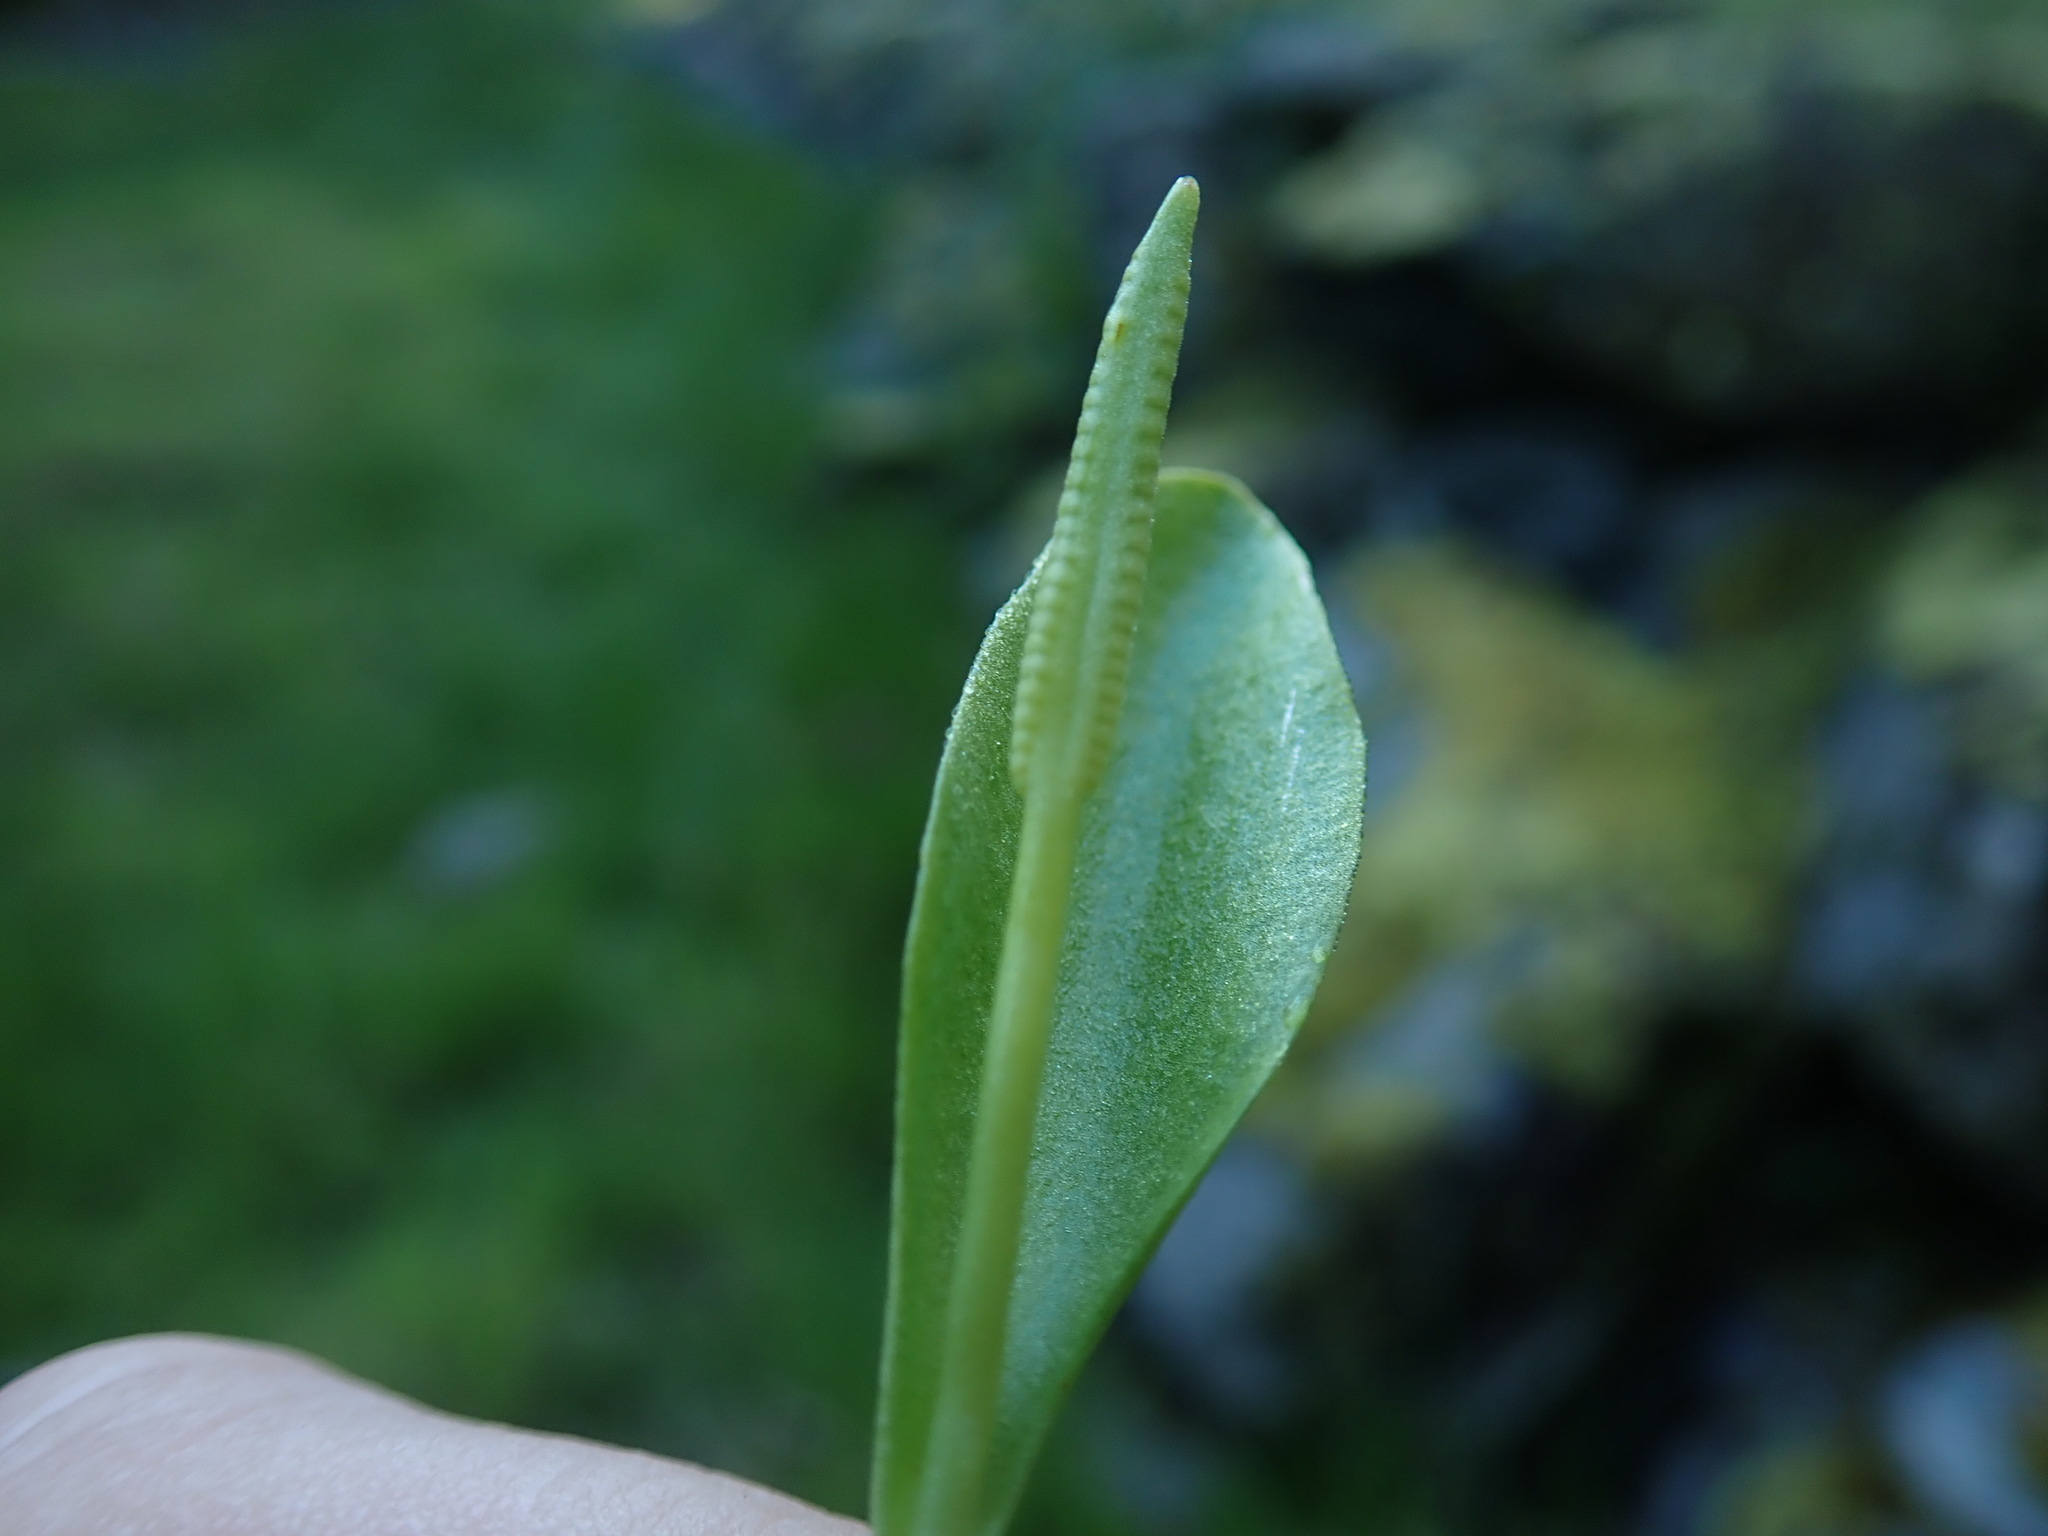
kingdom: Plantae
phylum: Tracheophyta
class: Polypodiopsida
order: Ophioglossales
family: Ophioglossaceae
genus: Ophioglossum
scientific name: Ophioglossum pusillum
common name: Northern adder's-tongue
